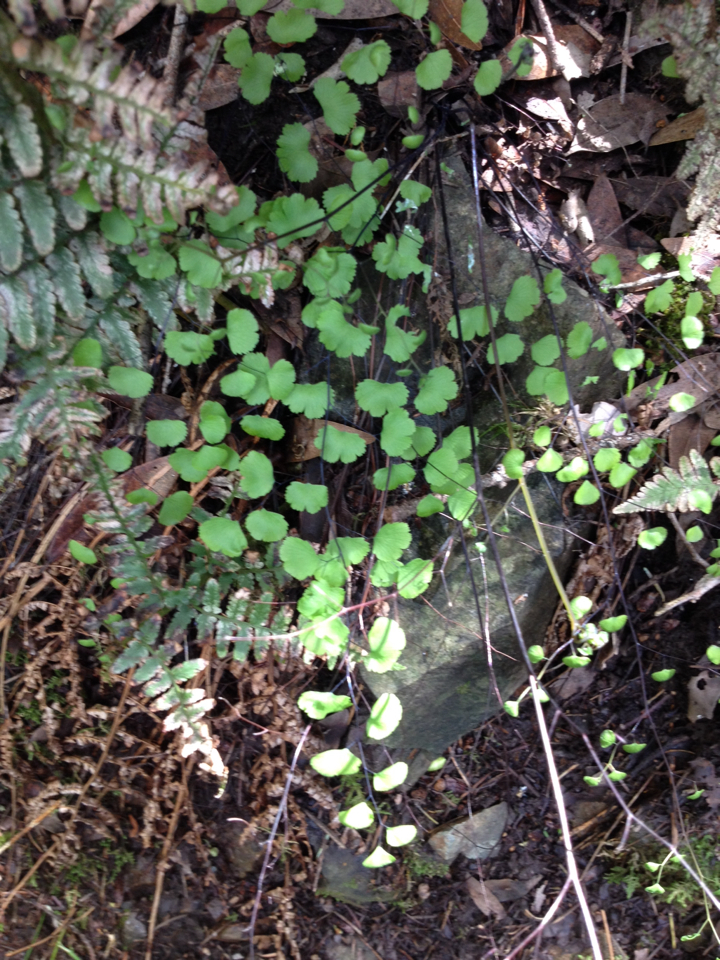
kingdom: Plantae
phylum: Tracheophyta
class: Polypodiopsida
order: Polypodiales
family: Pteridaceae
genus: Adiantum
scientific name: Adiantum jordanii
